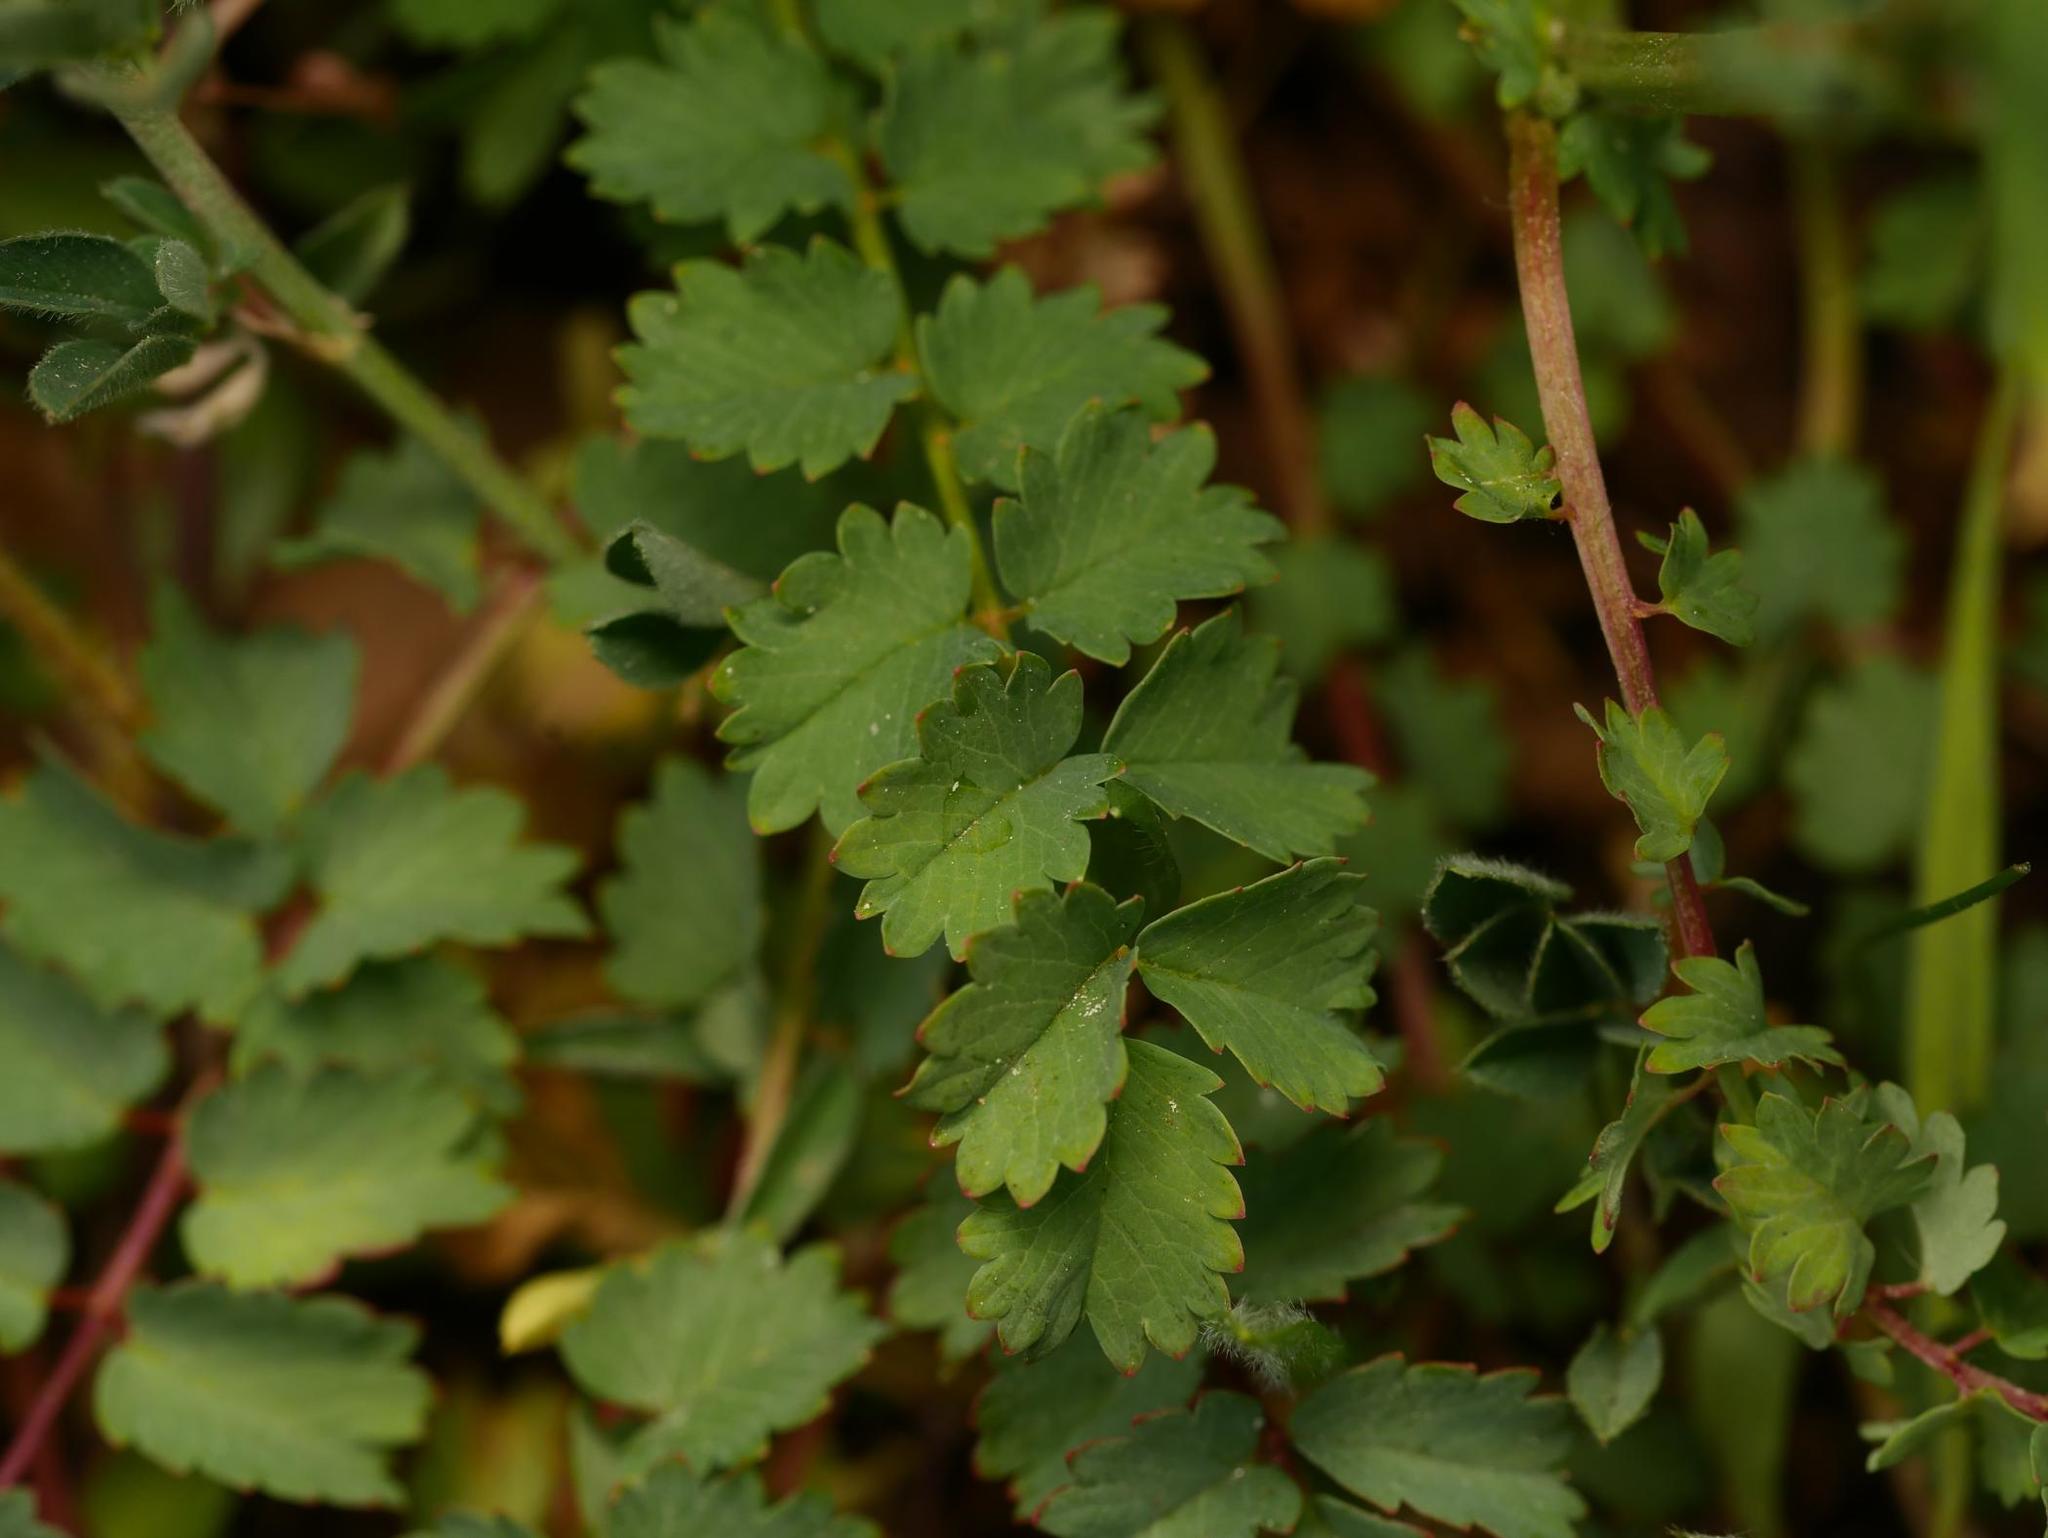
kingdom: Plantae
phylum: Tracheophyta
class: Magnoliopsida
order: Rosales
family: Rosaceae
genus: Poterium
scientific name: Poterium sanguisorba
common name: Salad burnet
